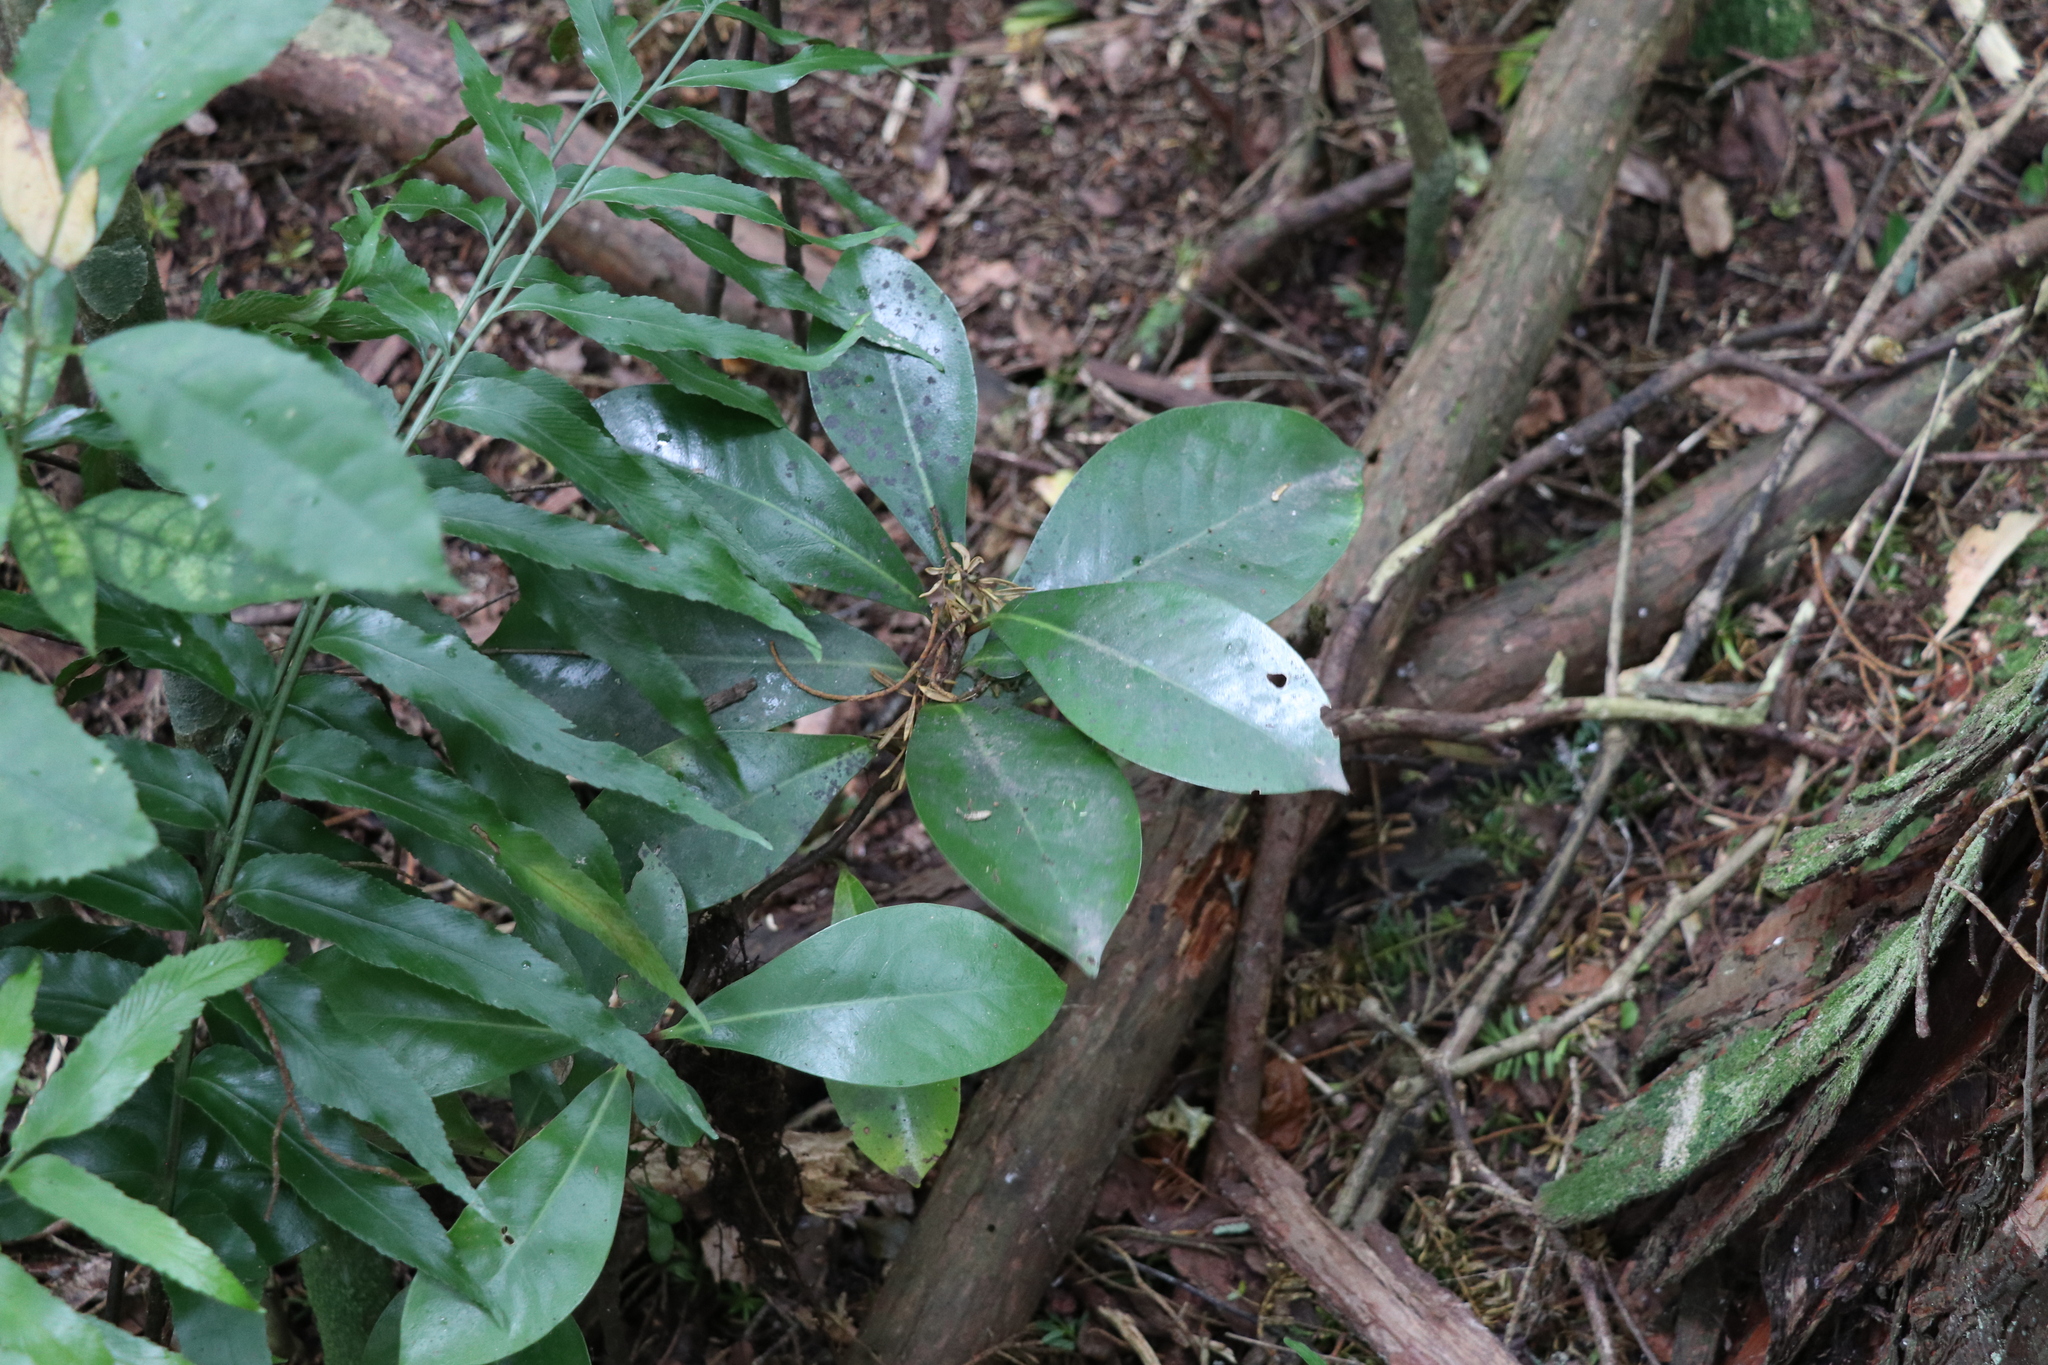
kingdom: Plantae
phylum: Tracheophyta
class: Magnoliopsida
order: Cucurbitales
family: Corynocarpaceae
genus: Corynocarpus
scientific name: Corynocarpus laevigatus
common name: New zealand laurel
